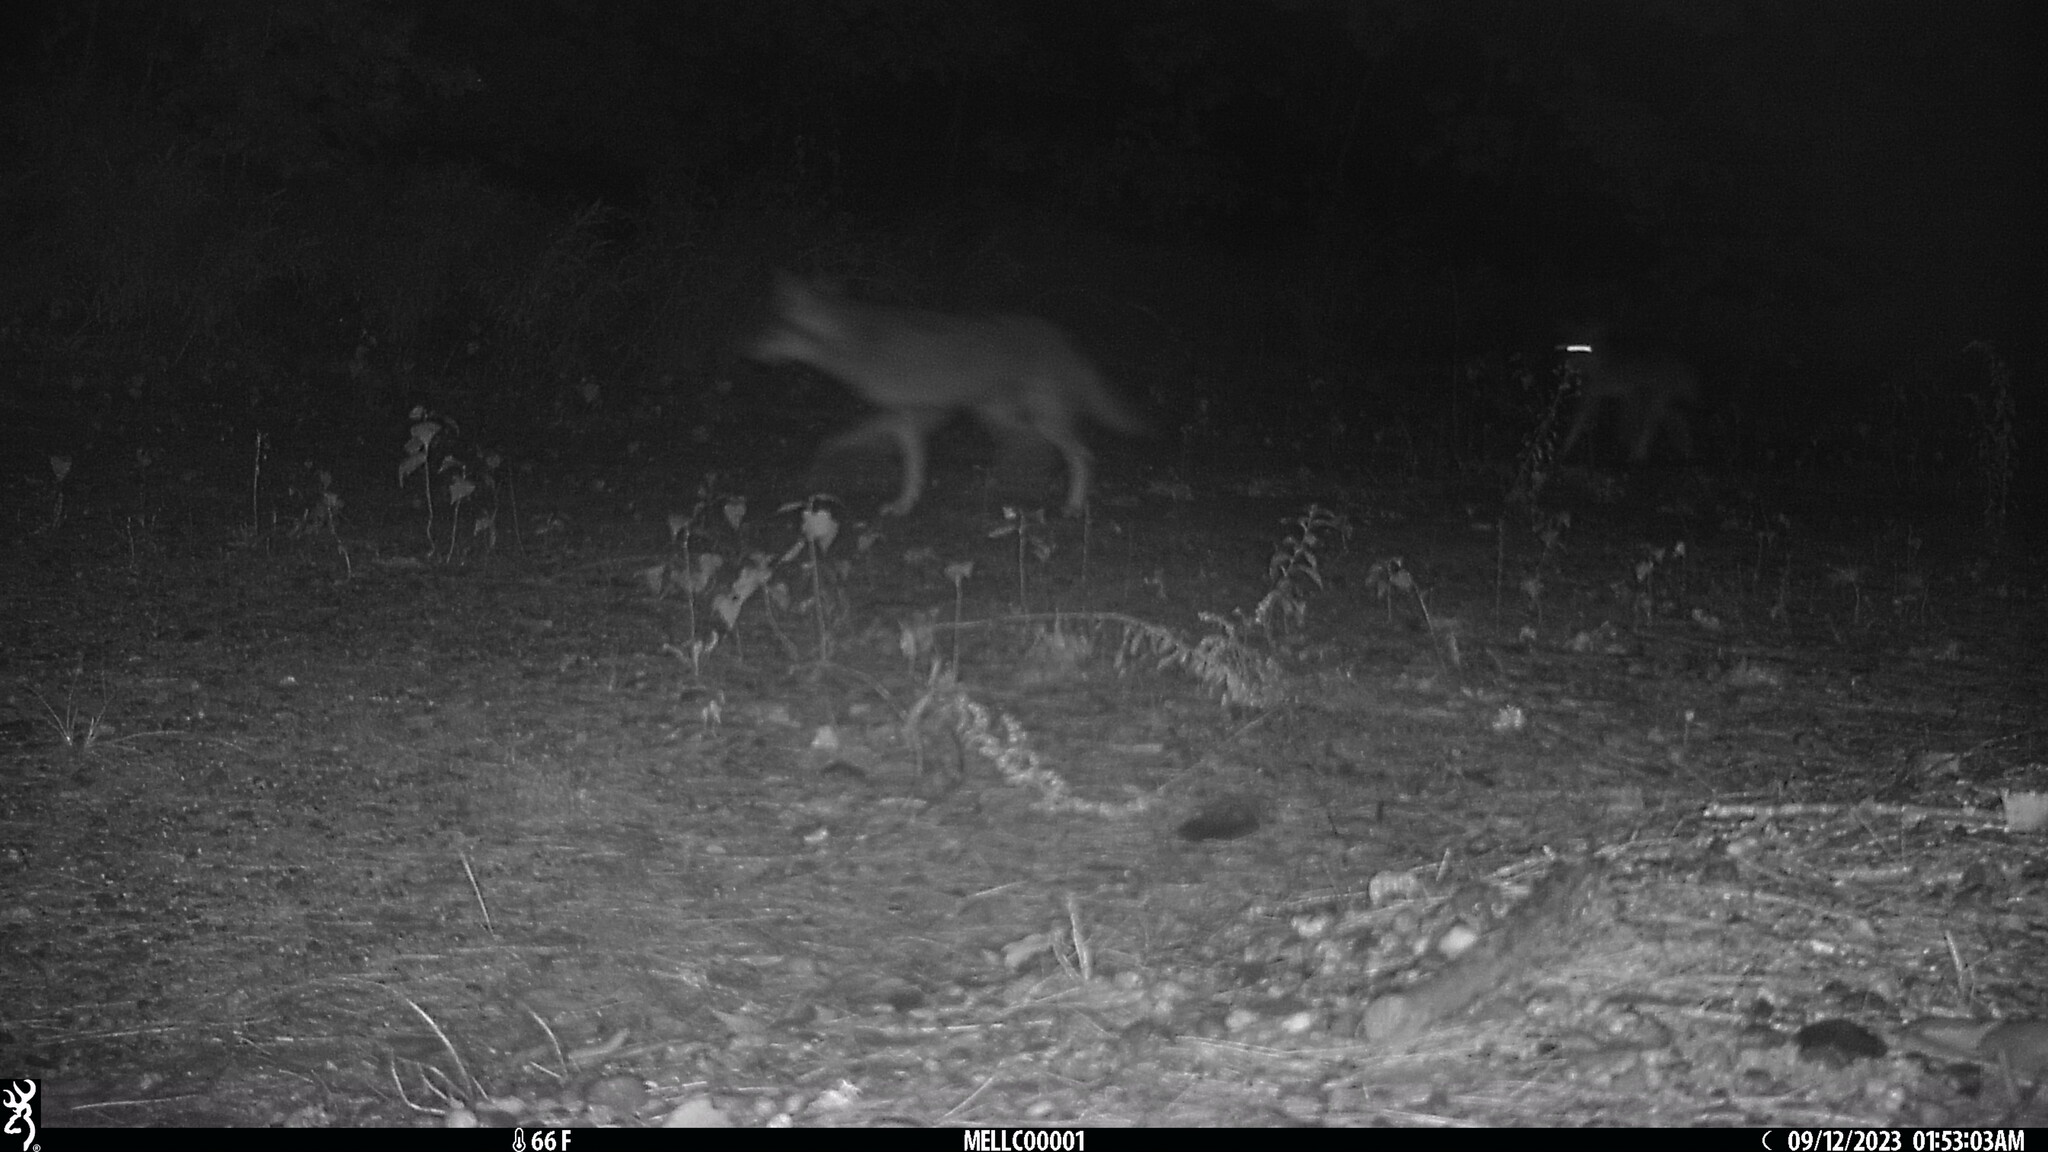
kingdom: Animalia
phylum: Chordata
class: Mammalia
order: Carnivora
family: Canidae
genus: Canis
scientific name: Canis latrans
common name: Coyote
